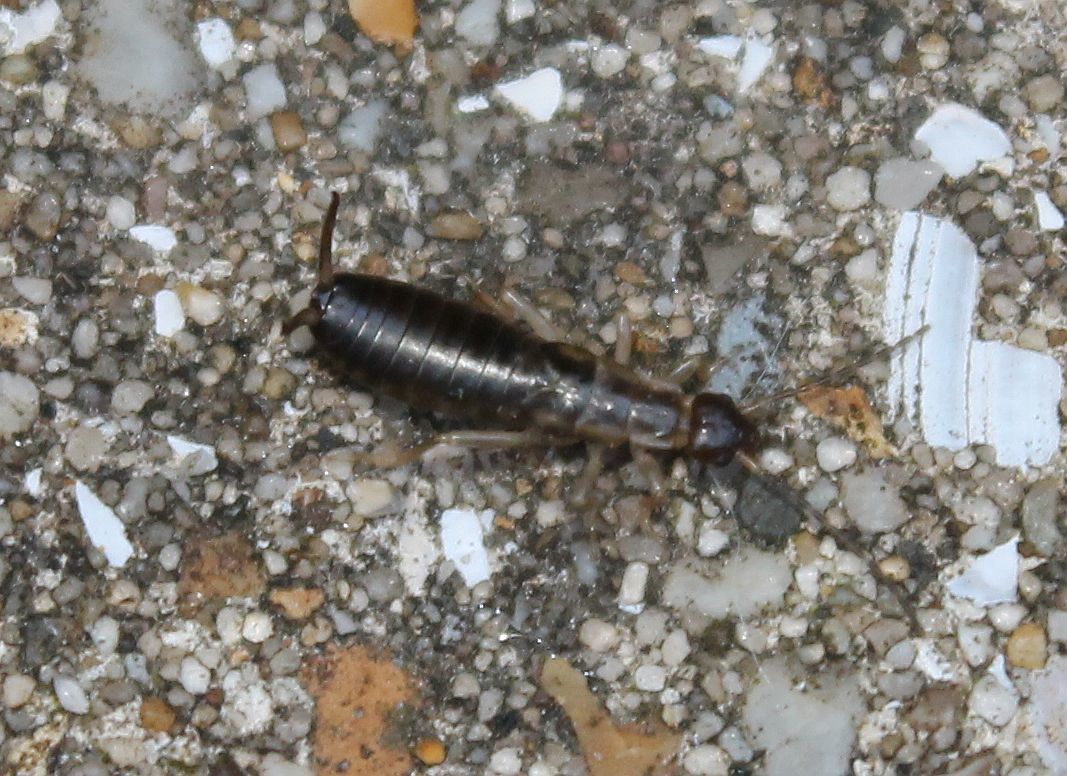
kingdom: Animalia
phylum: Arthropoda
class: Insecta
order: Dermaptera
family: Forficulidae
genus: Forficula
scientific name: Forficula
